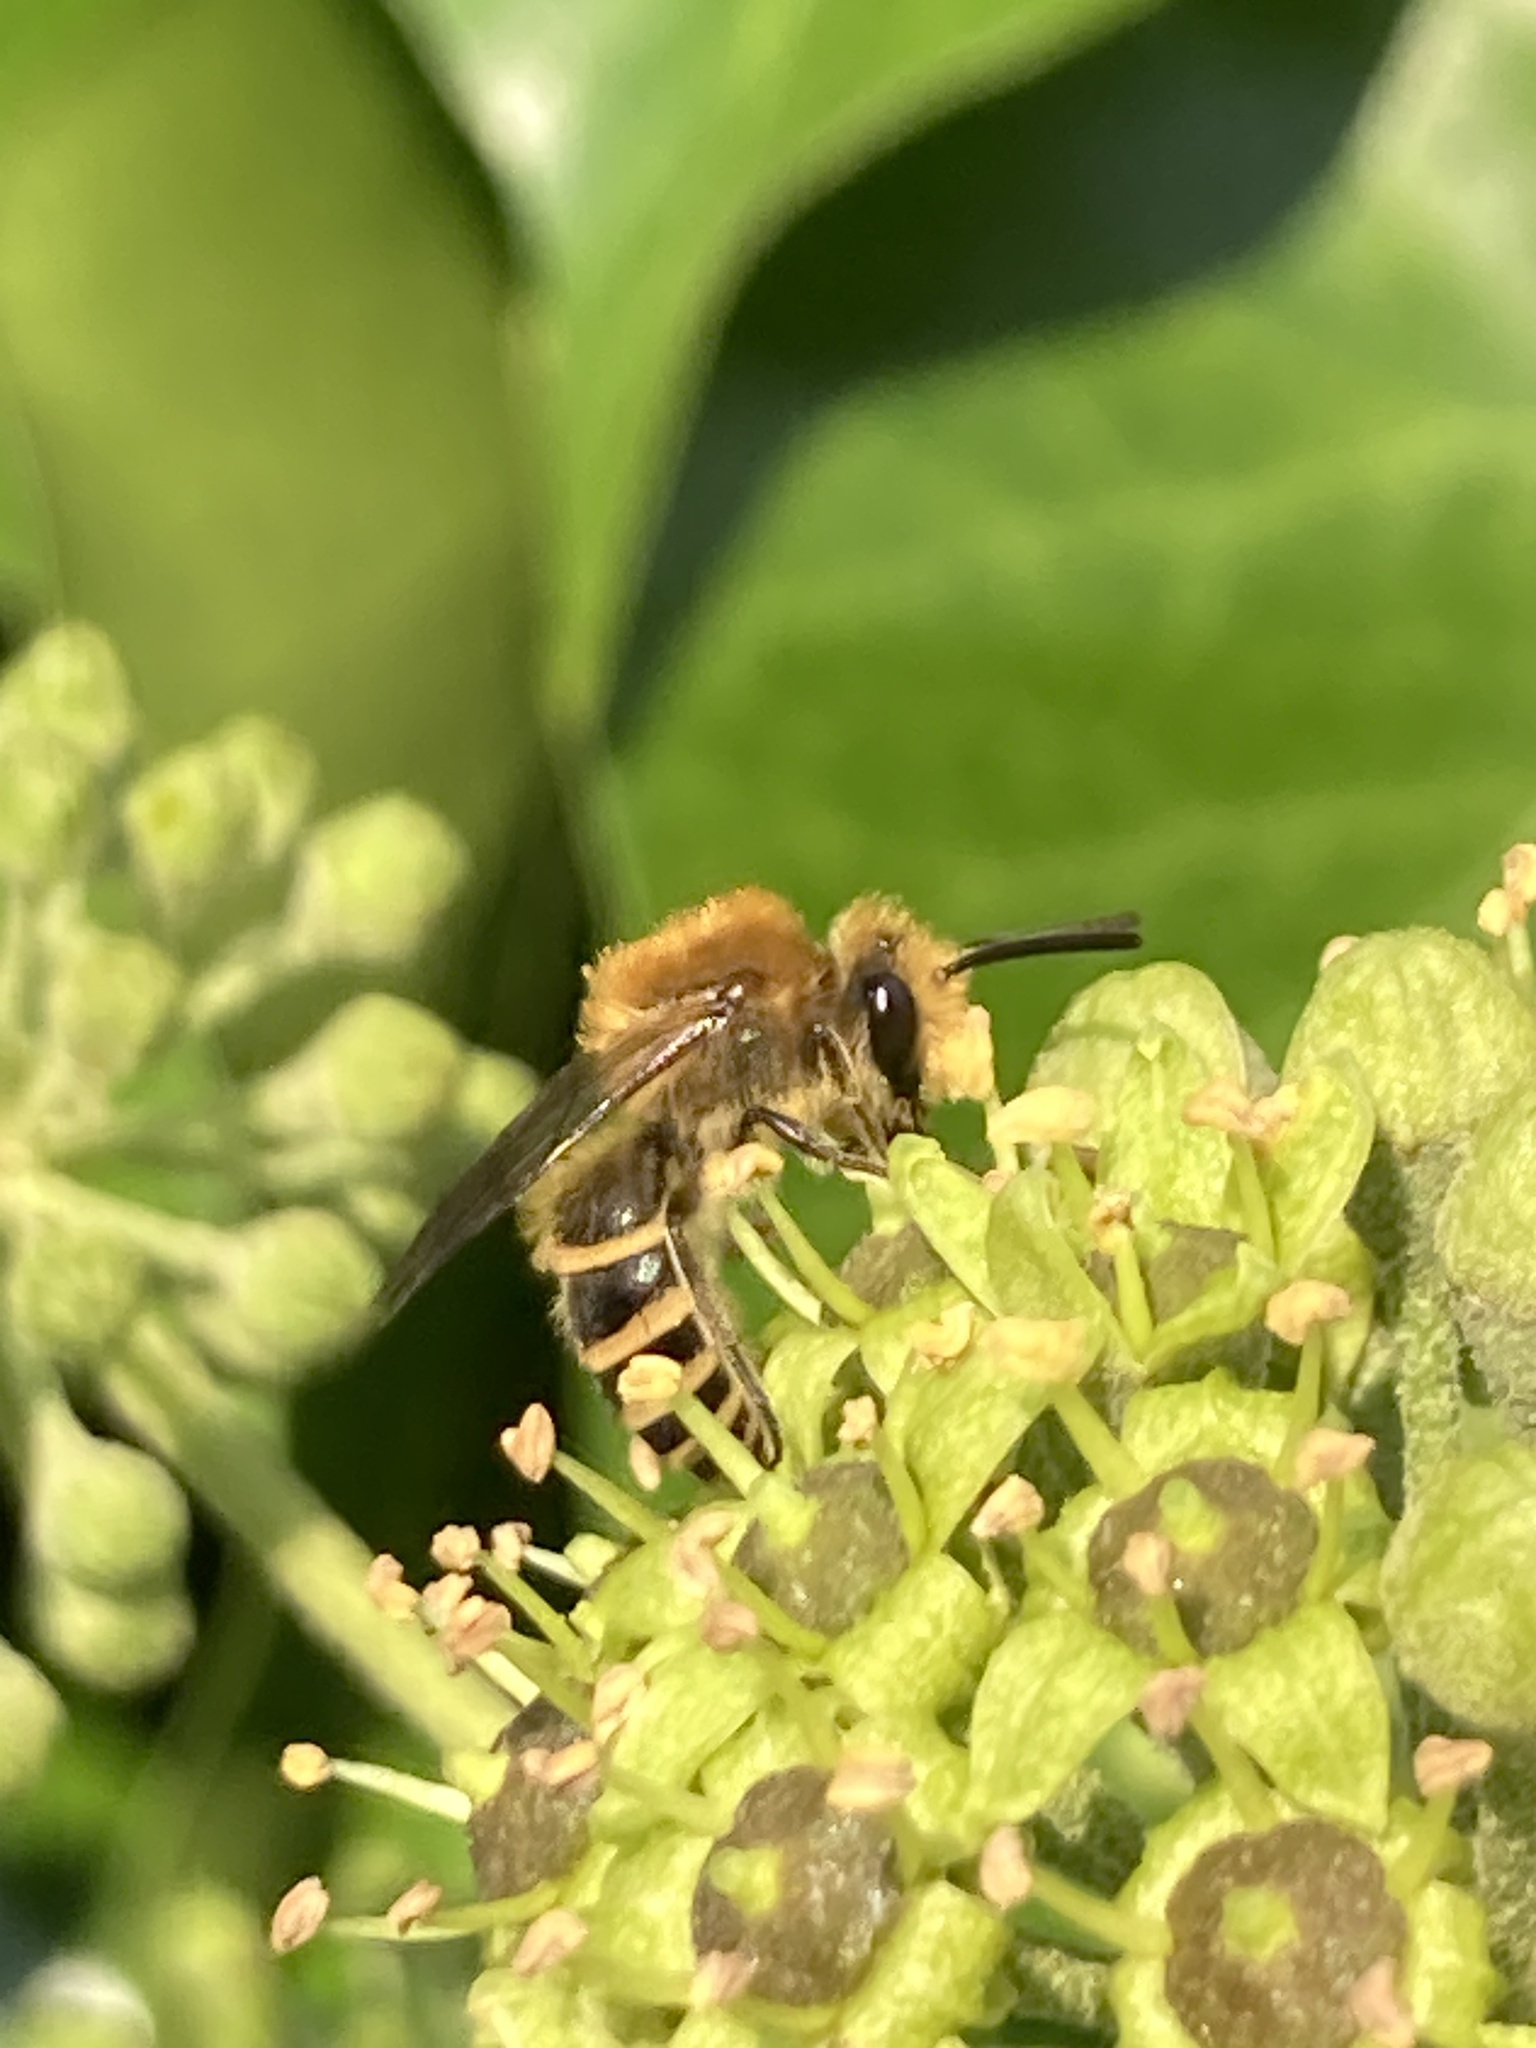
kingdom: Animalia
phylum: Arthropoda
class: Insecta
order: Hymenoptera
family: Colletidae
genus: Colletes
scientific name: Colletes hederae
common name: Ivy bee
